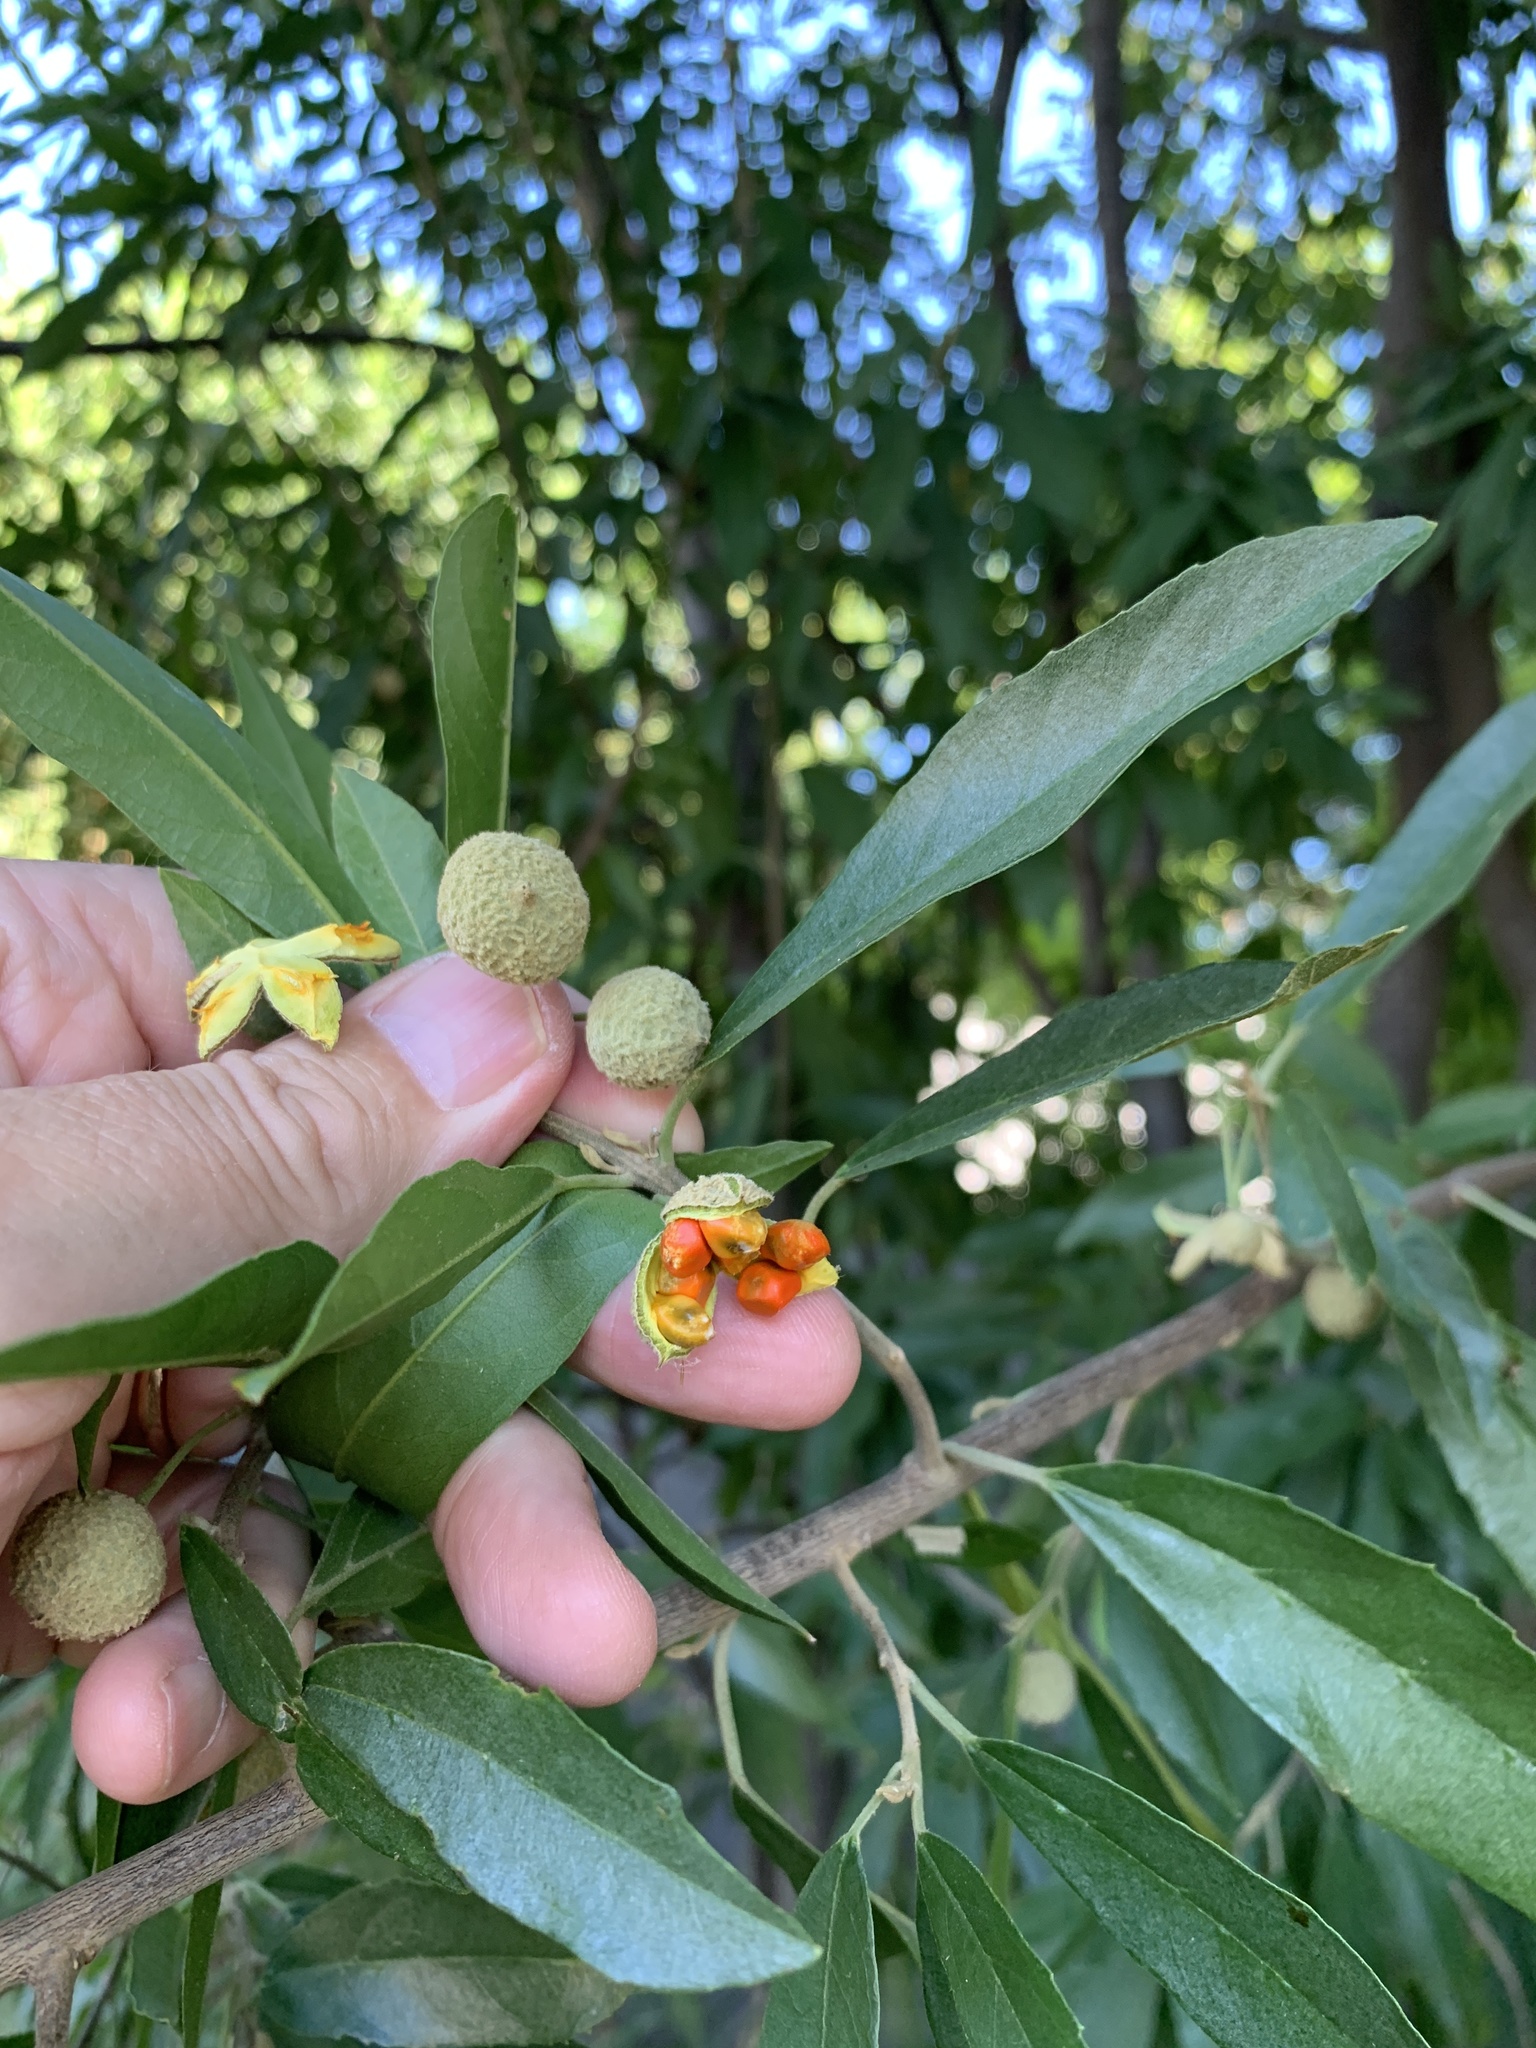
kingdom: Plantae
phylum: Tracheophyta
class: Magnoliopsida
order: Malpighiales
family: Achariaceae
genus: Kiggelaria
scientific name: Kiggelaria africana
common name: Wild peach
